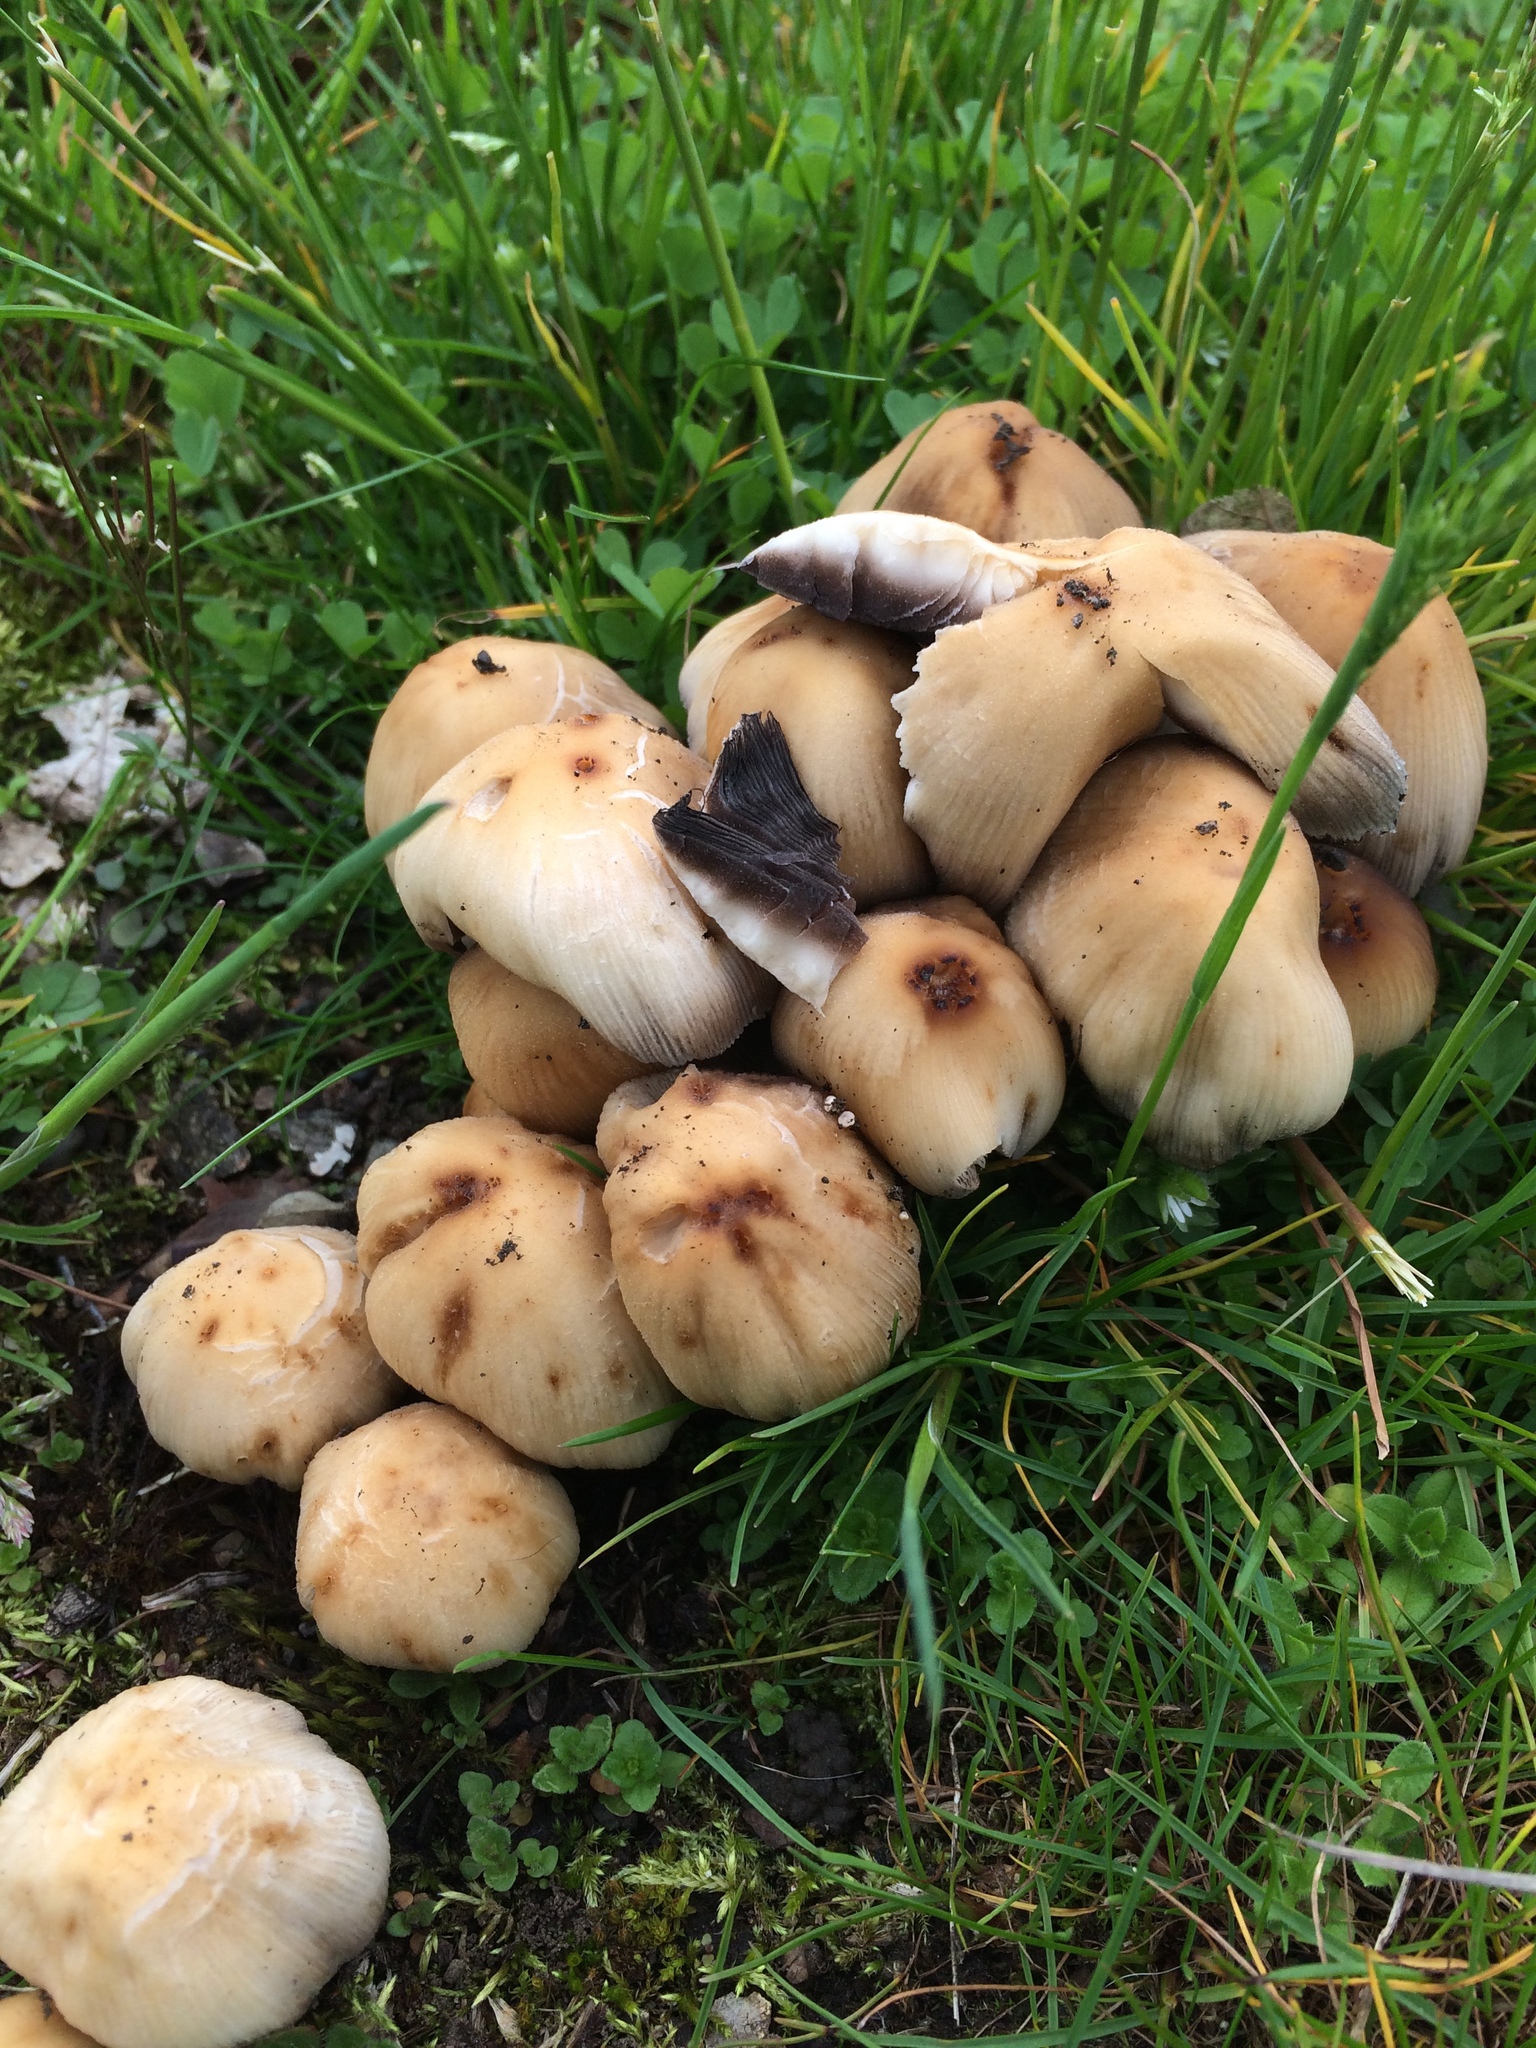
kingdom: Fungi
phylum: Basidiomycota
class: Agaricomycetes
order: Agaricales
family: Psathyrellaceae
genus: Coprinellus
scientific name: Coprinellus micaceus
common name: Glistening ink-cap
